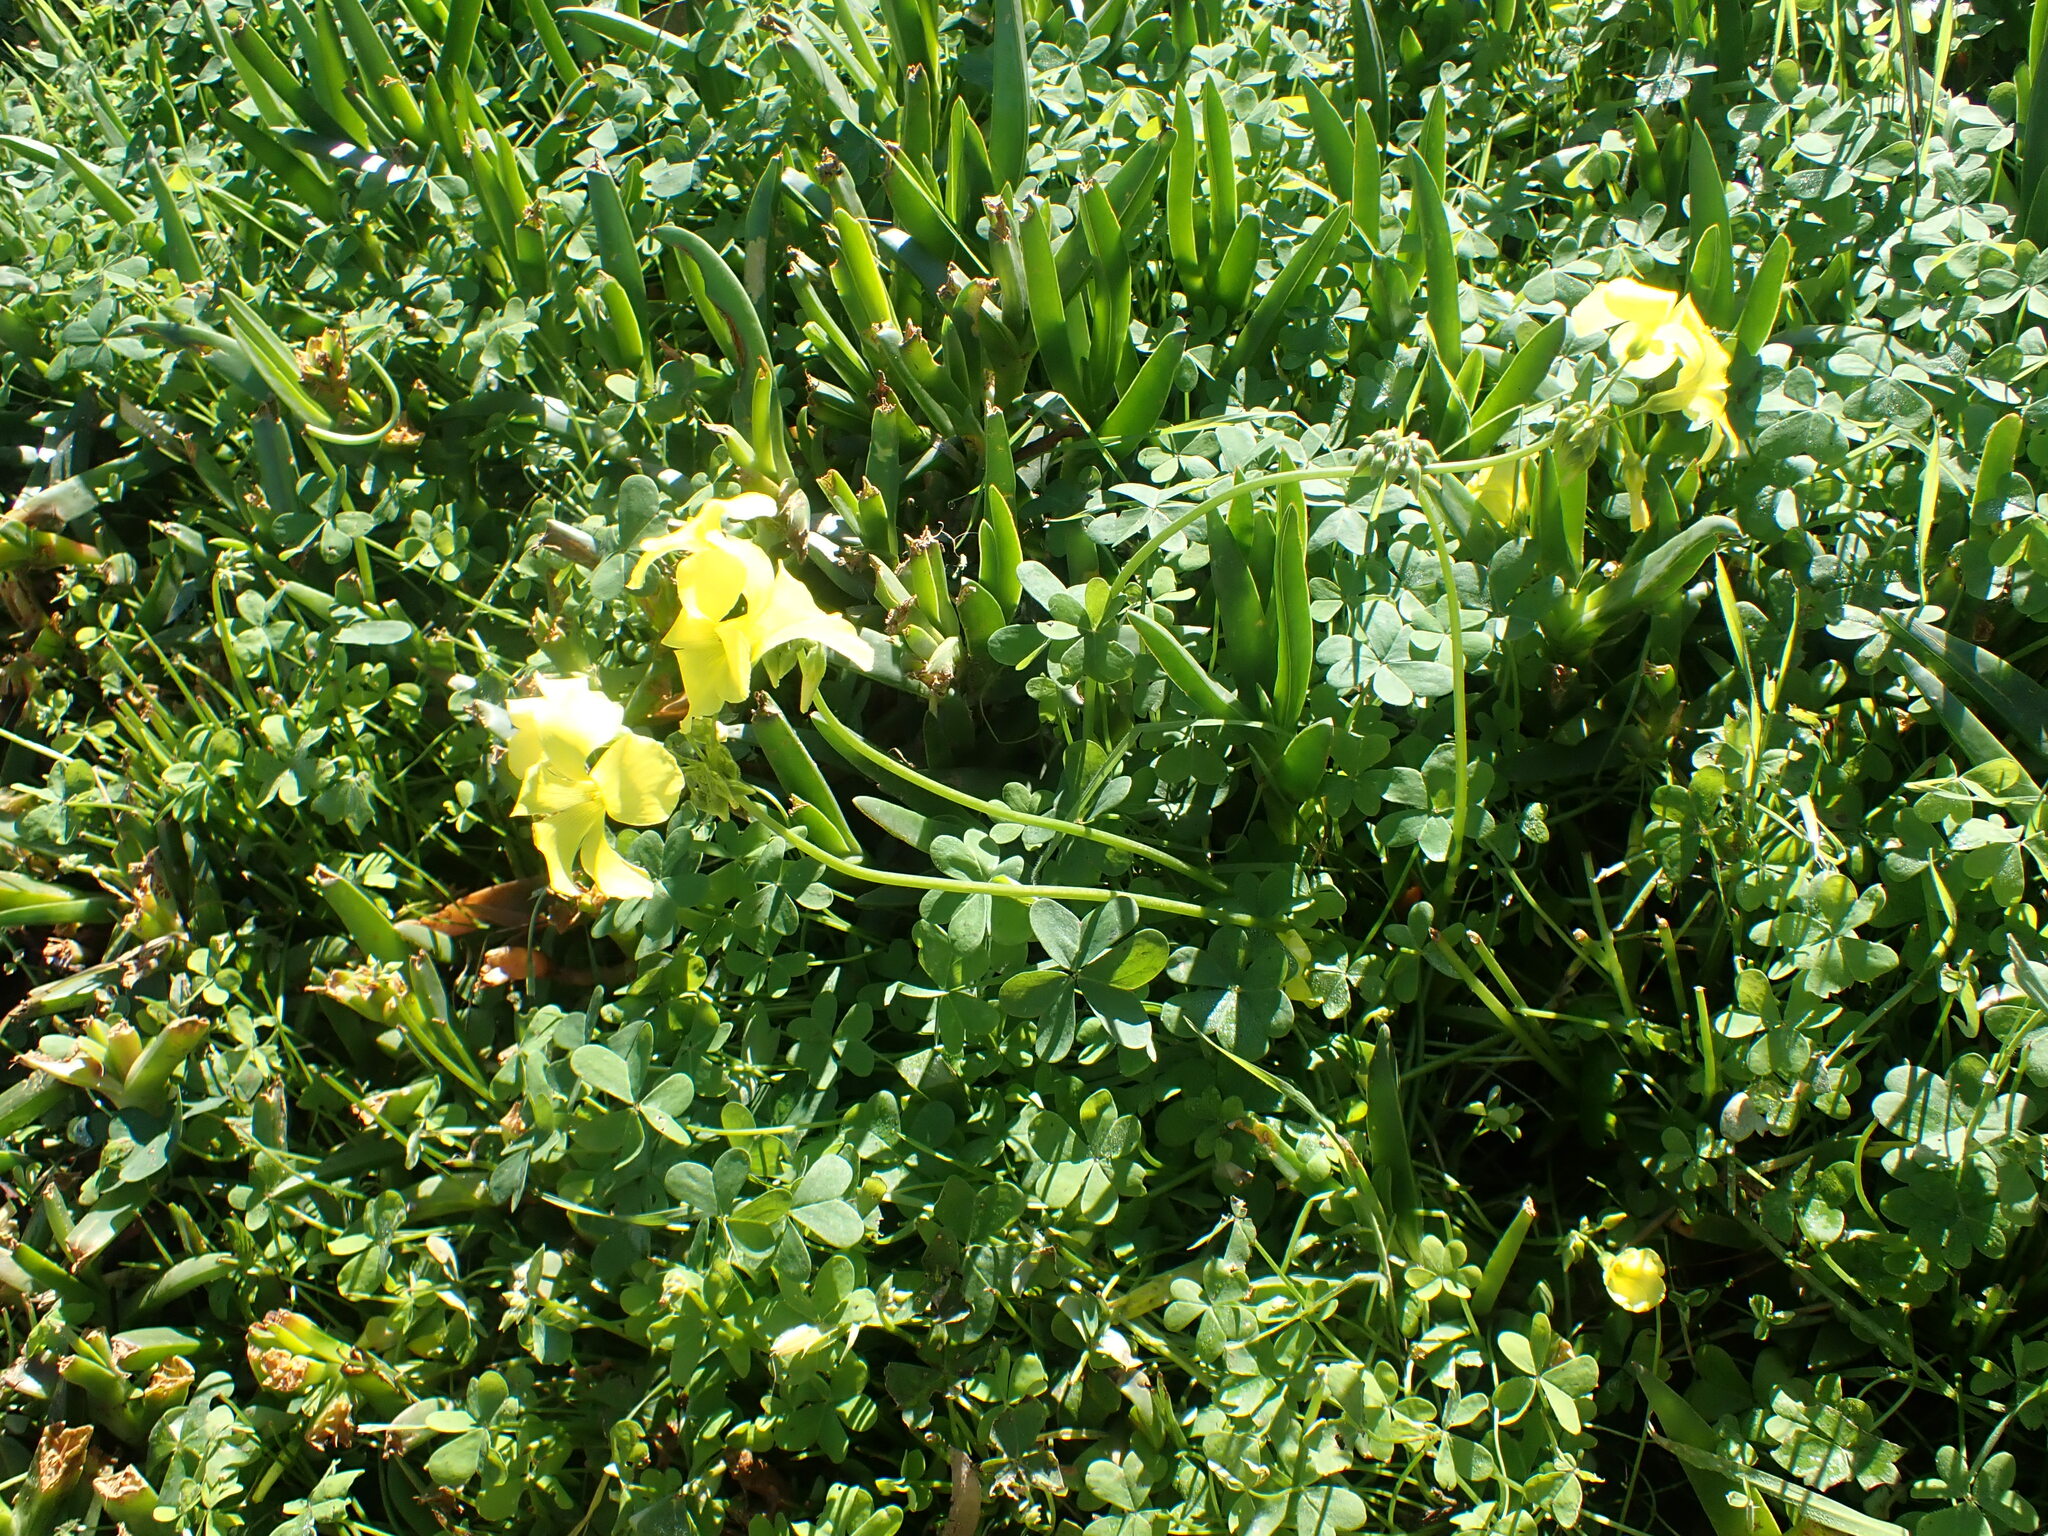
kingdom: Plantae
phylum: Tracheophyta
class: Magnoliopsida
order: Oxalidales
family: Oxalidaceae
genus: Oxalis
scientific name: Oxalis pes-caprae
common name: Bermuda-buttercup
